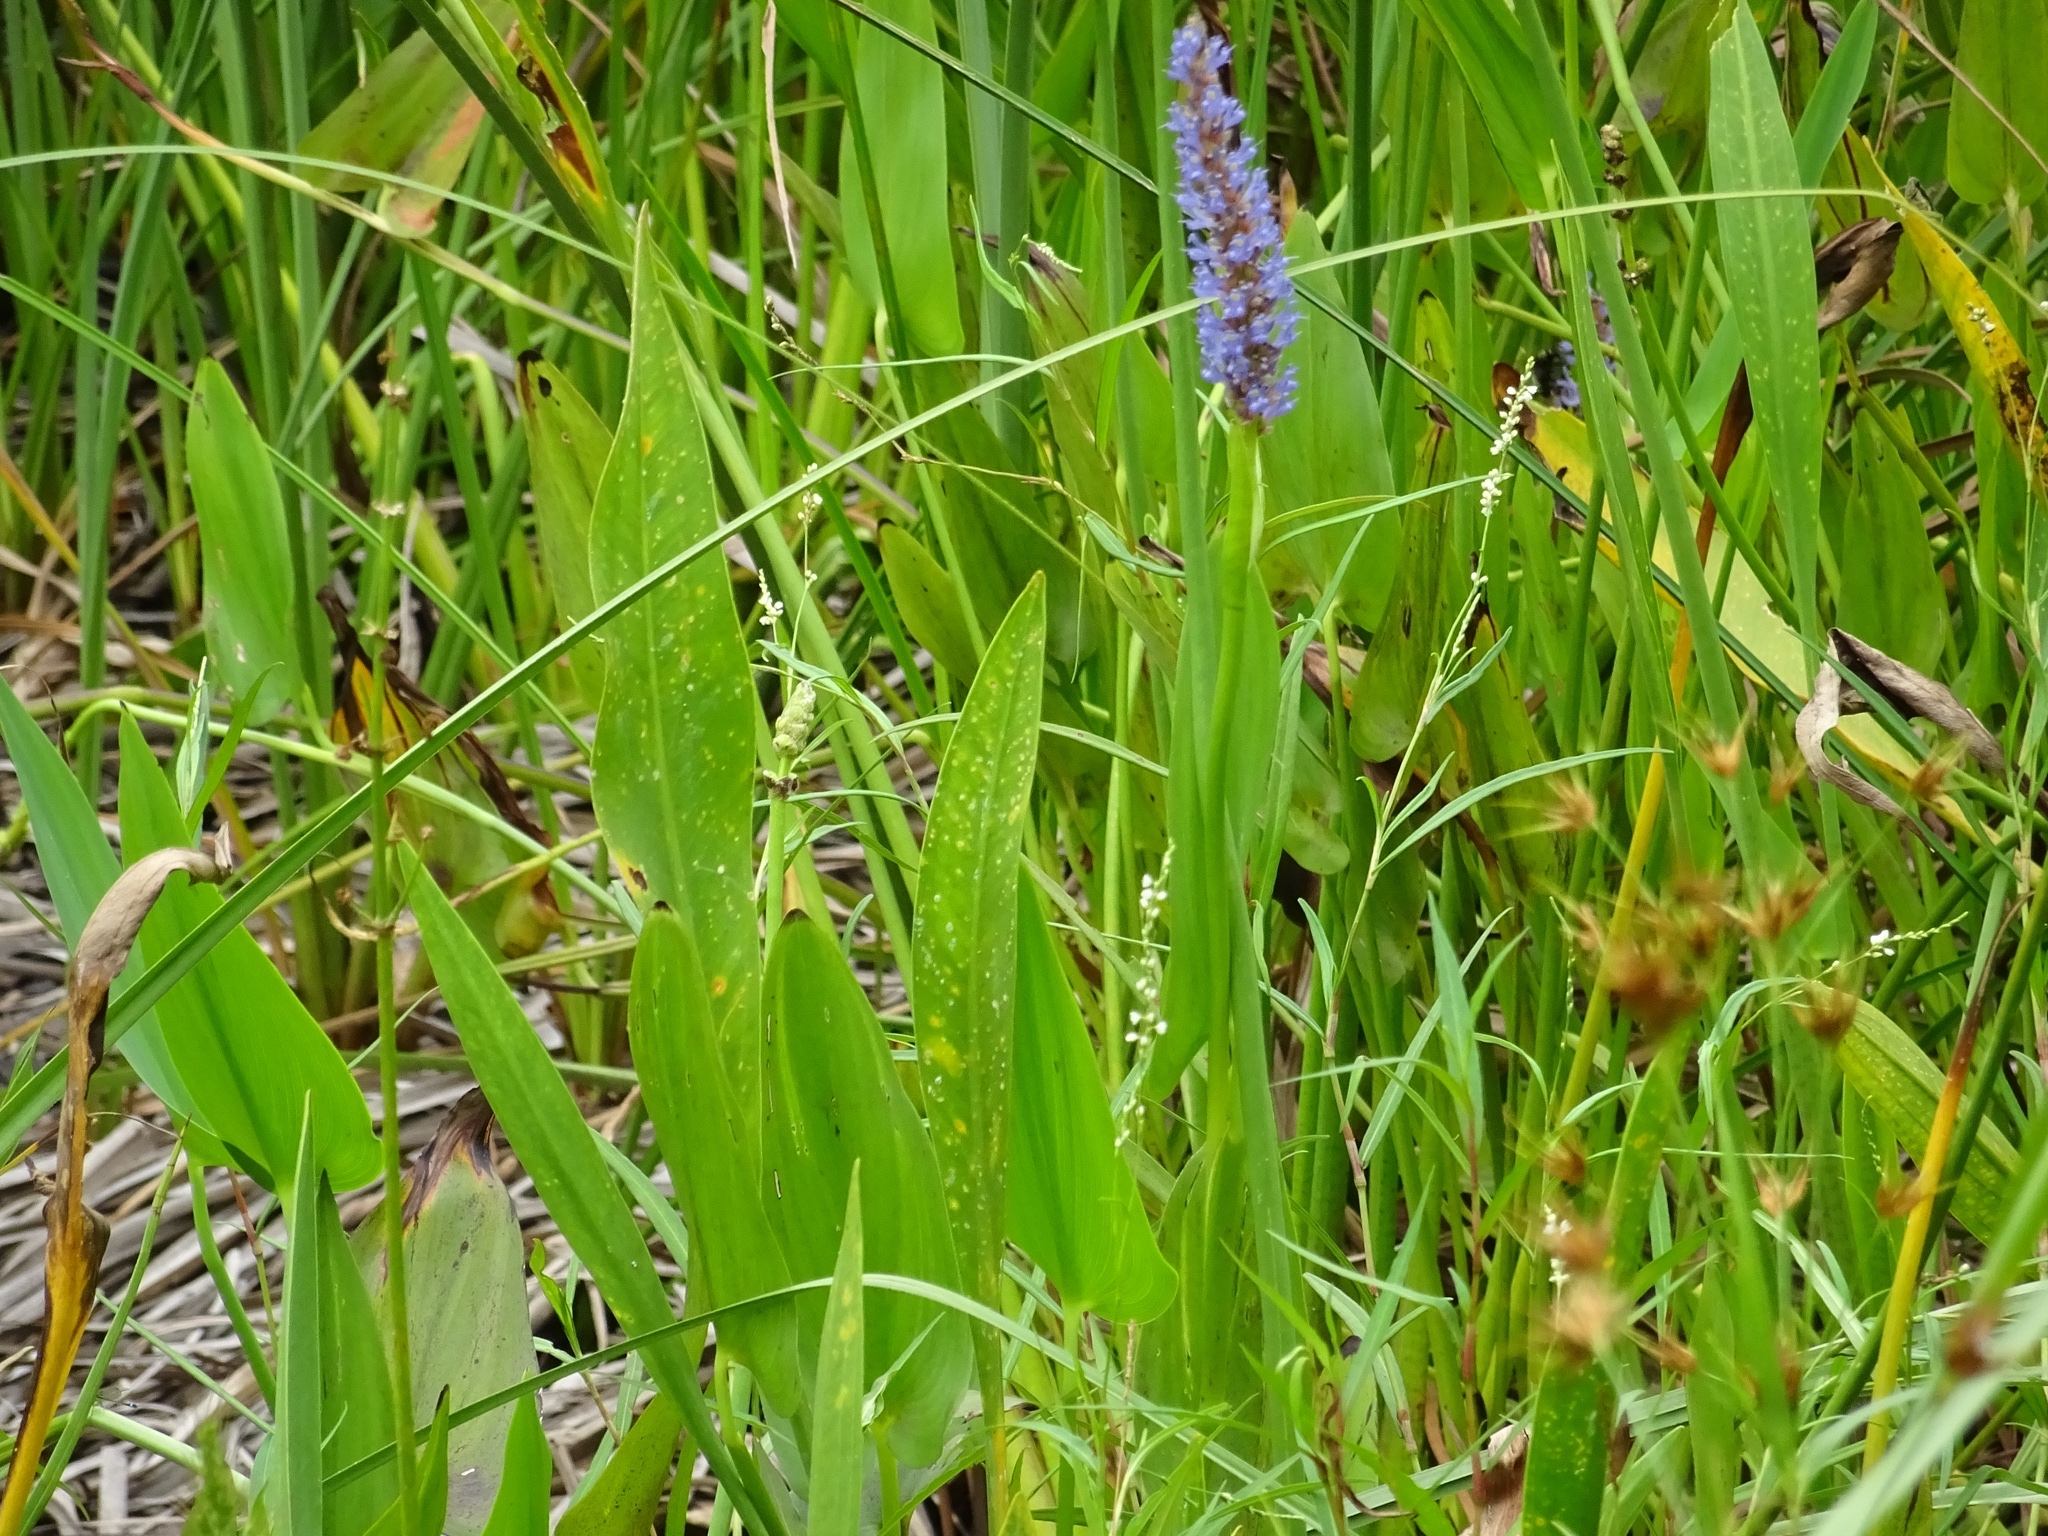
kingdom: Plantae
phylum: Tracheophyta
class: Liliopsida
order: Commelinales
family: Pontederiaceae
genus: Pontederia
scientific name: Pontederia cordata
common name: Pickerelweed
